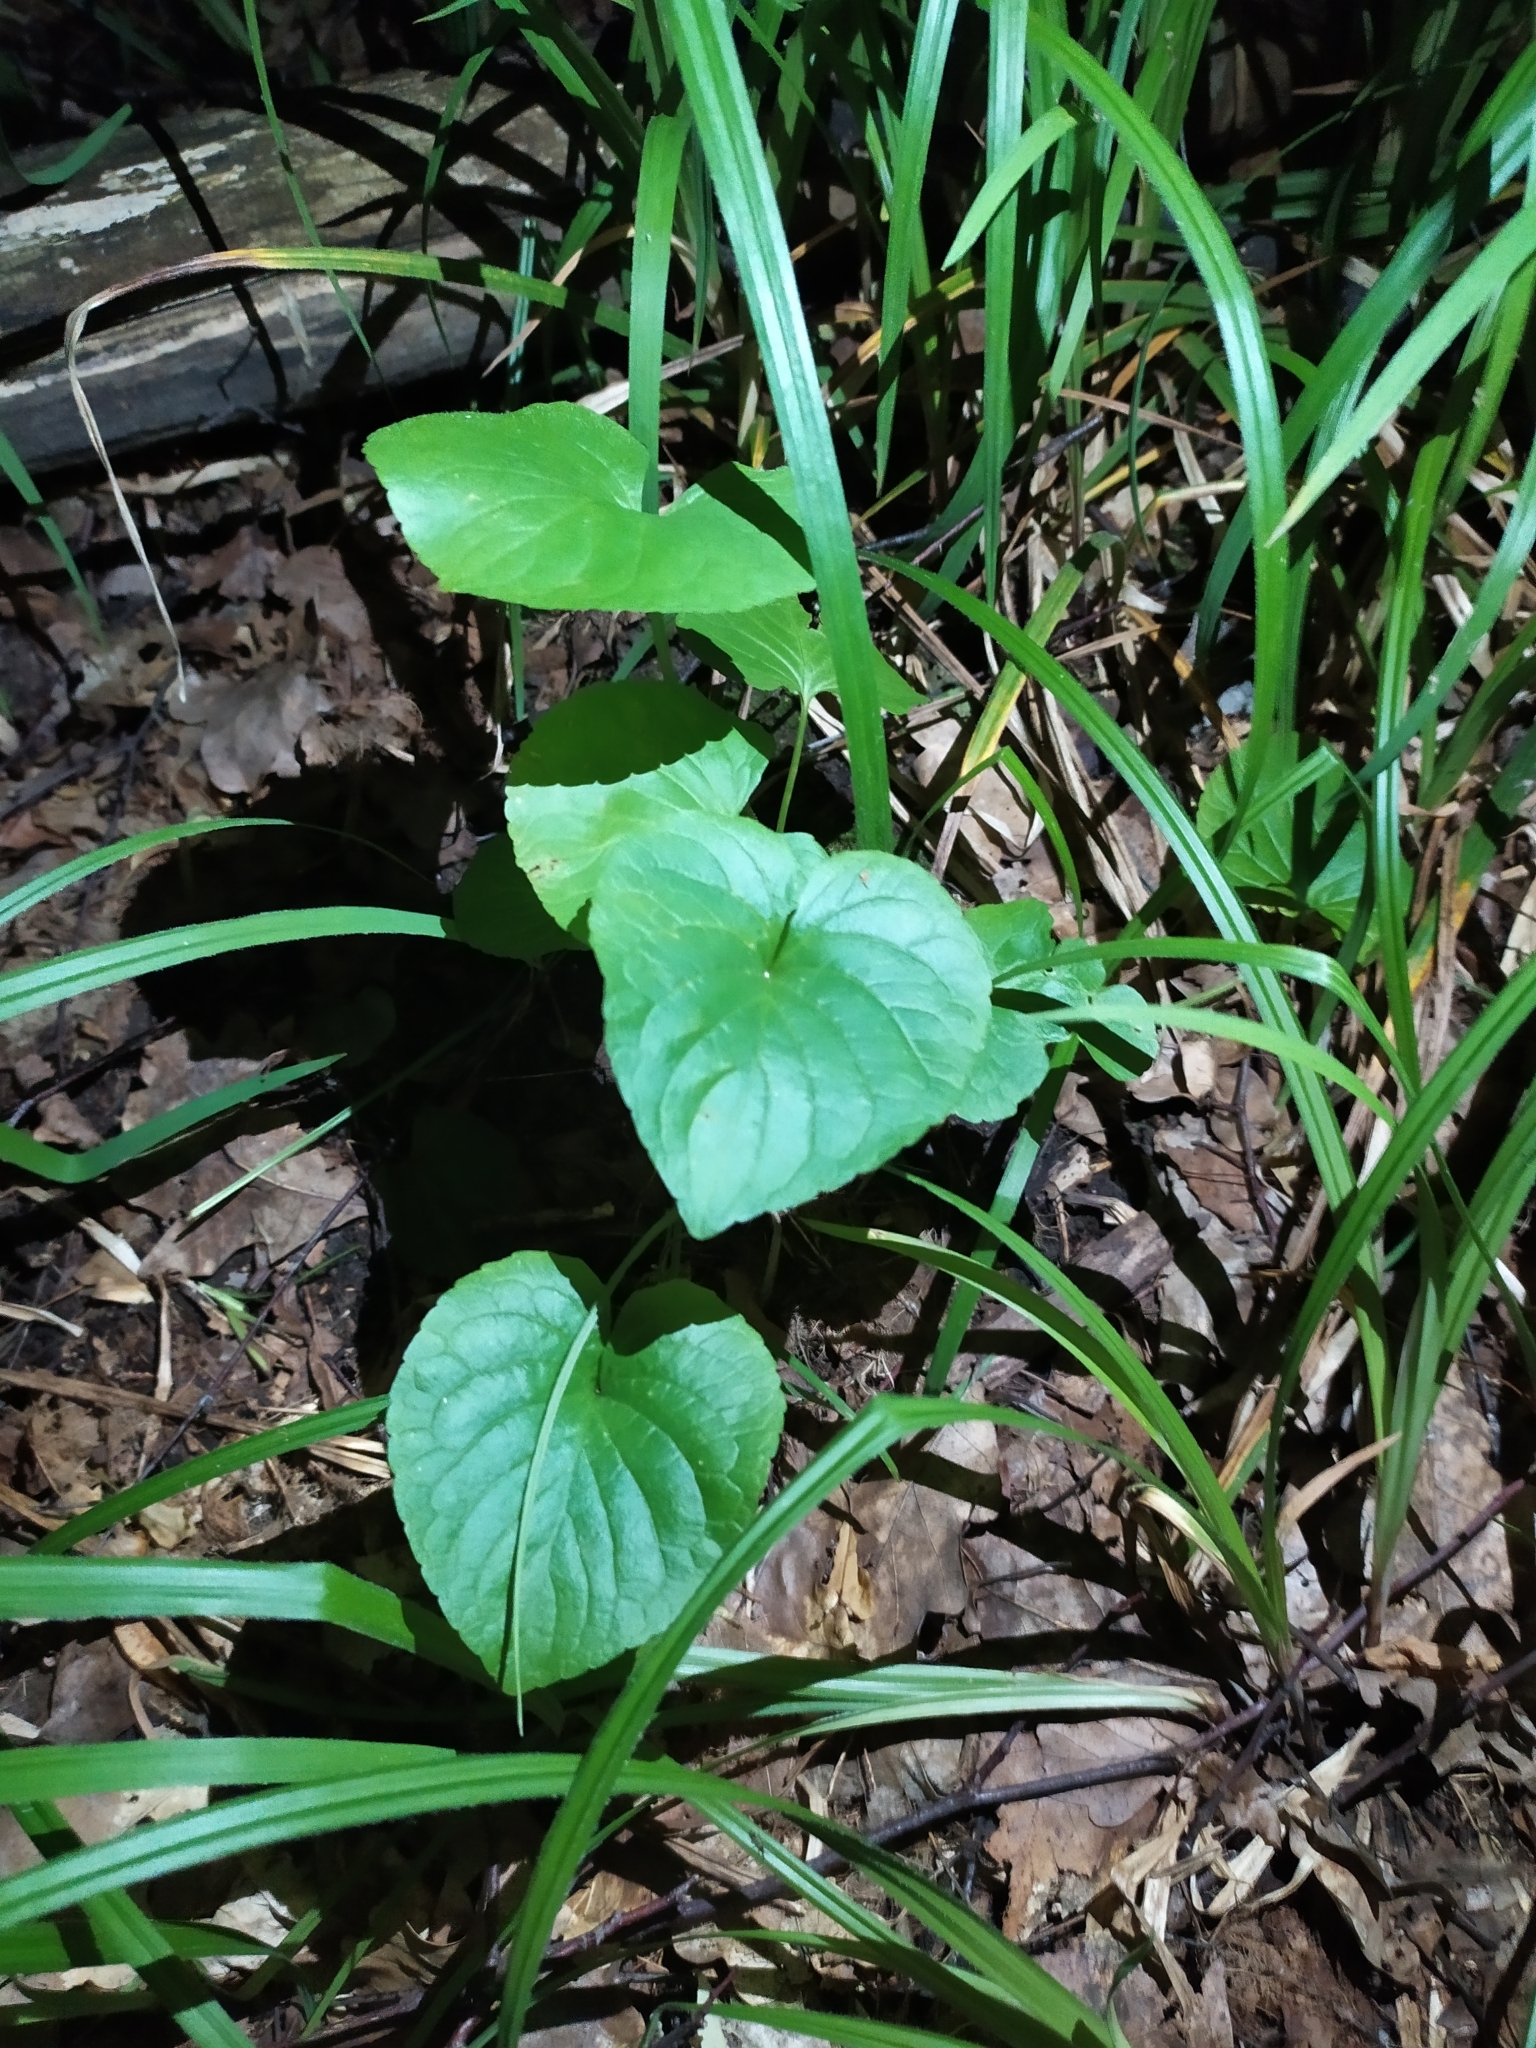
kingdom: Plantae
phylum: Tracheophyta
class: Magnoliopsida
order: Malpighiales
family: Violaceae
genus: Viola
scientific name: Viola mirabilis
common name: Wonder violet
